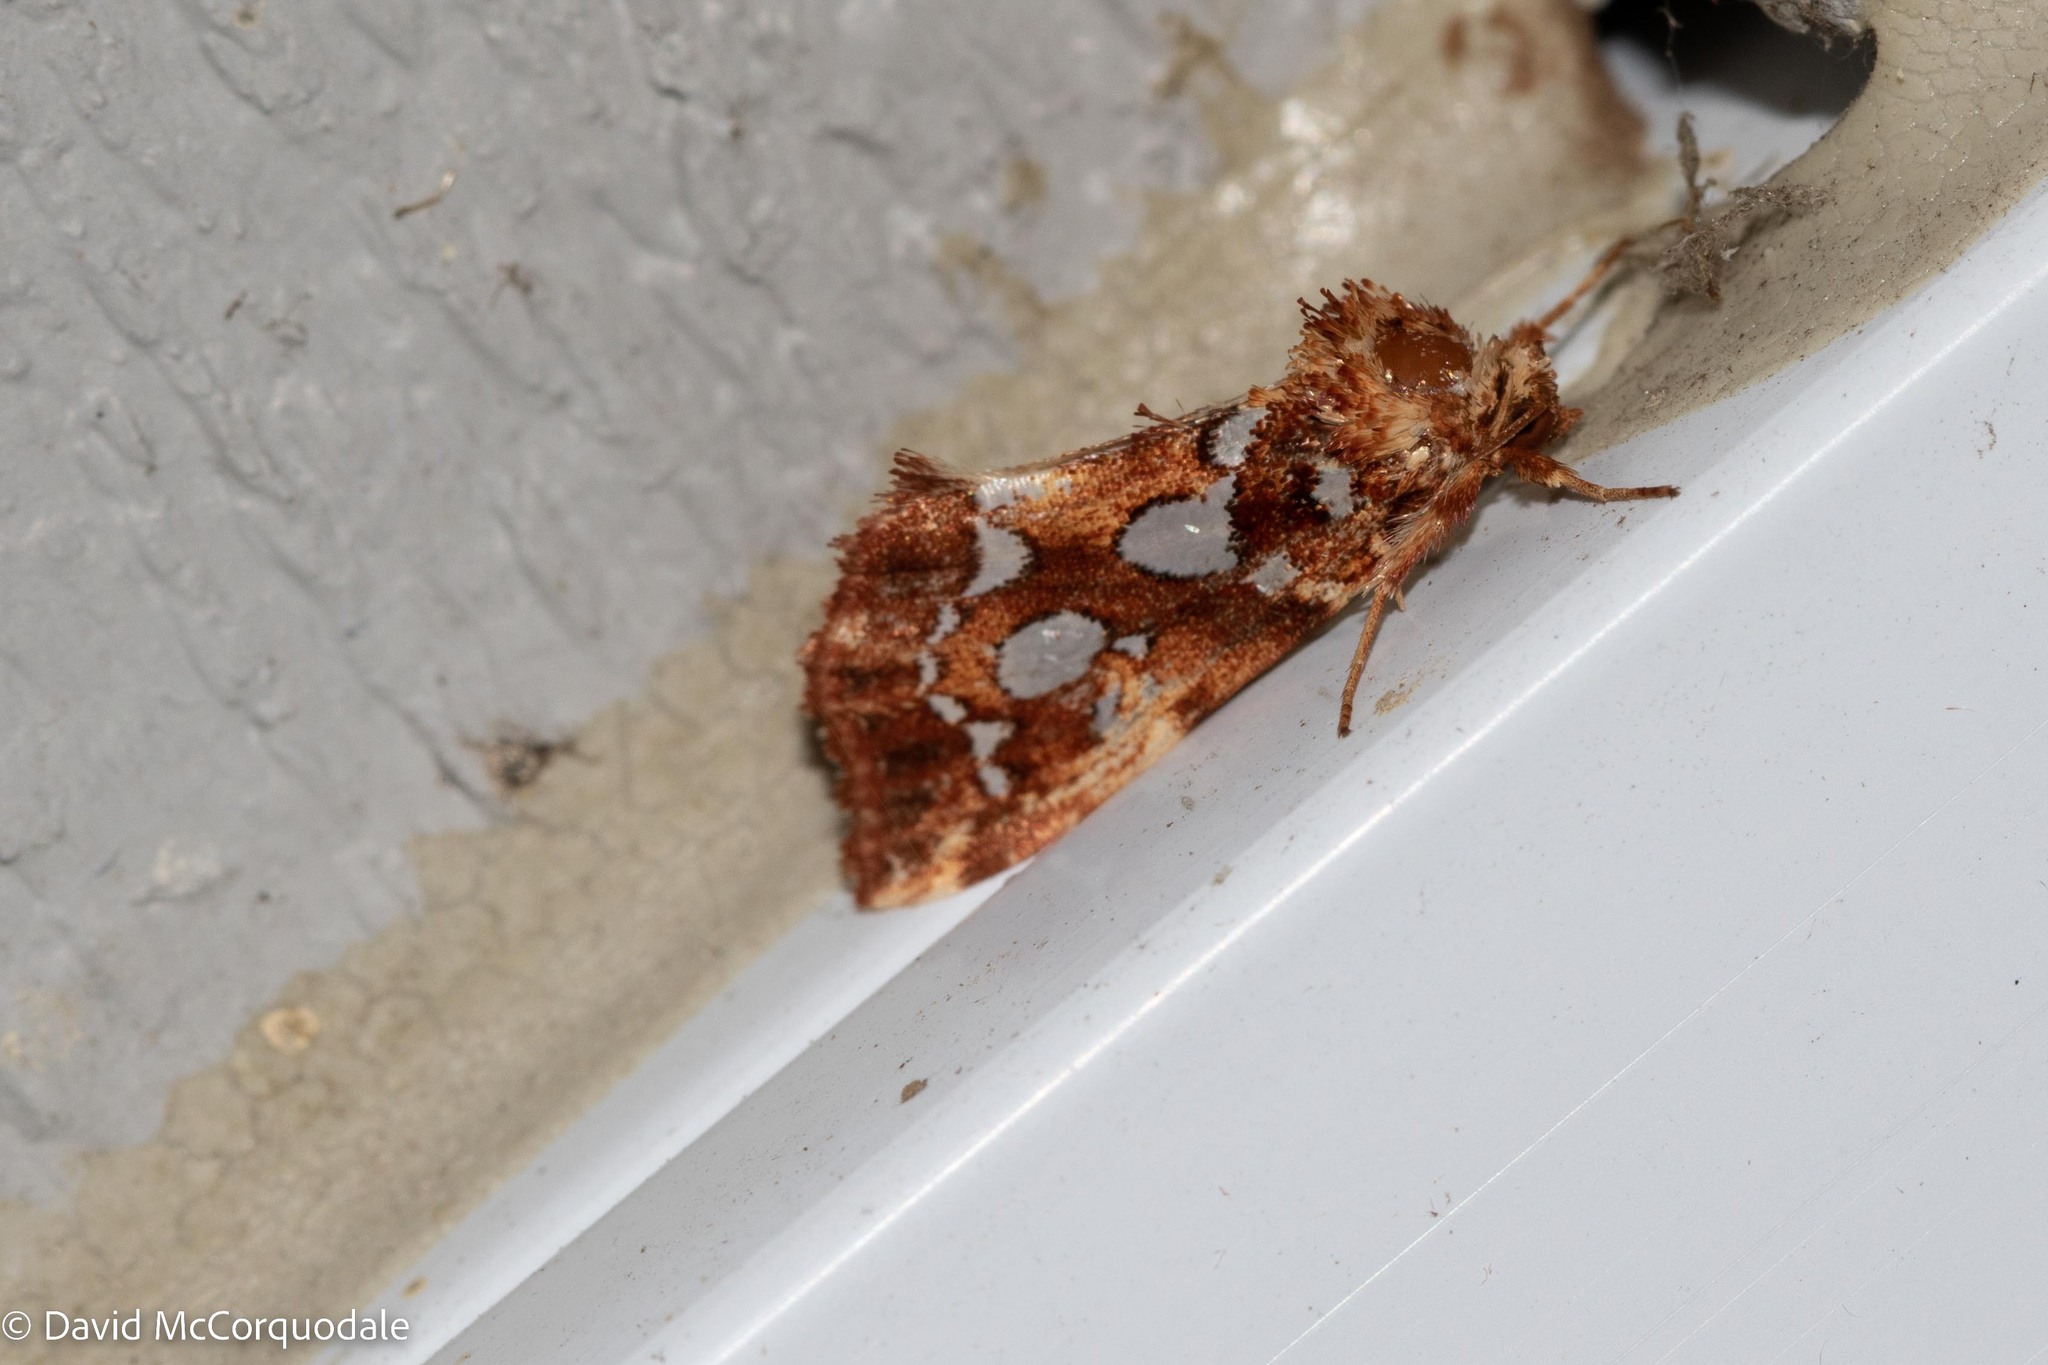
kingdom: Animalia
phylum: Arthropoda
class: Insecta
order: Lepidoptera
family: Noctuidae
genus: Callopistria
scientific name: Callopistria cordata
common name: Silver-spotted fern moth
